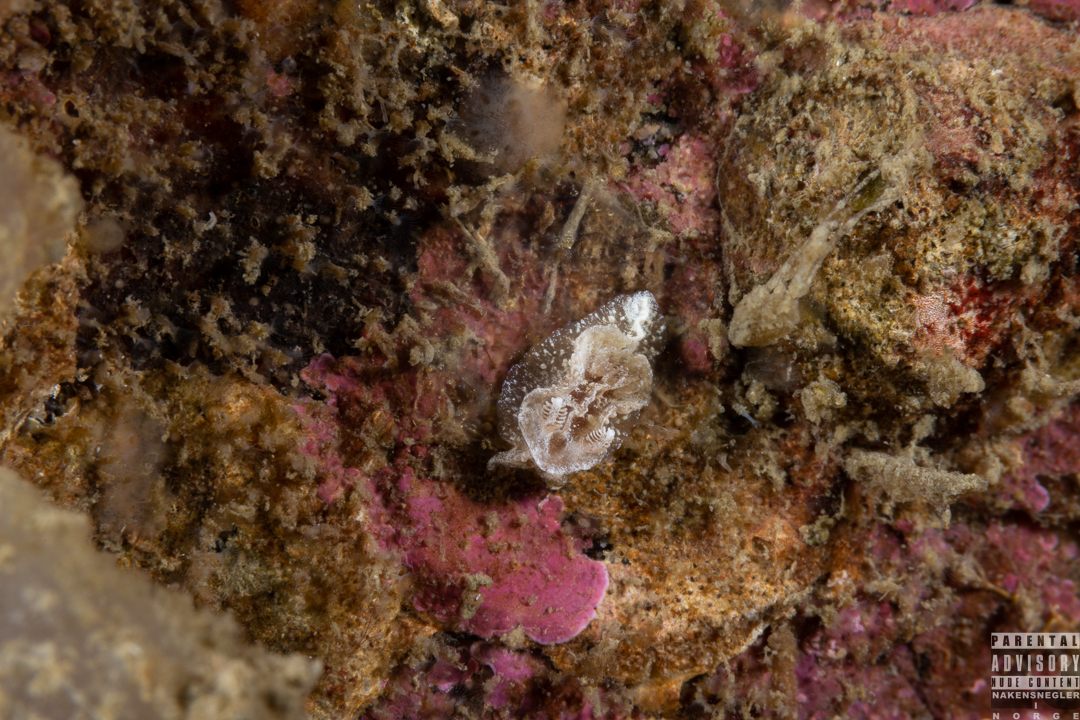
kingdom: Animalia
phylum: Mollusca
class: Gastropoda
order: Nudibranchia
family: Goniodorididae
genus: Pelagella
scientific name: Pelagella castanea
